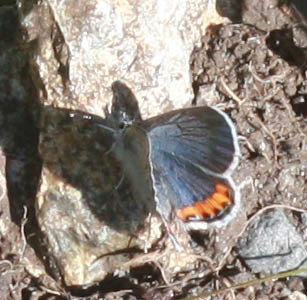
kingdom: Animalia
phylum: Arthropoda
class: Insecta
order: Lepidoptera
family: Lycaenidae
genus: Icaricia
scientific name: Icaricia acmon
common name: Acmon blue
